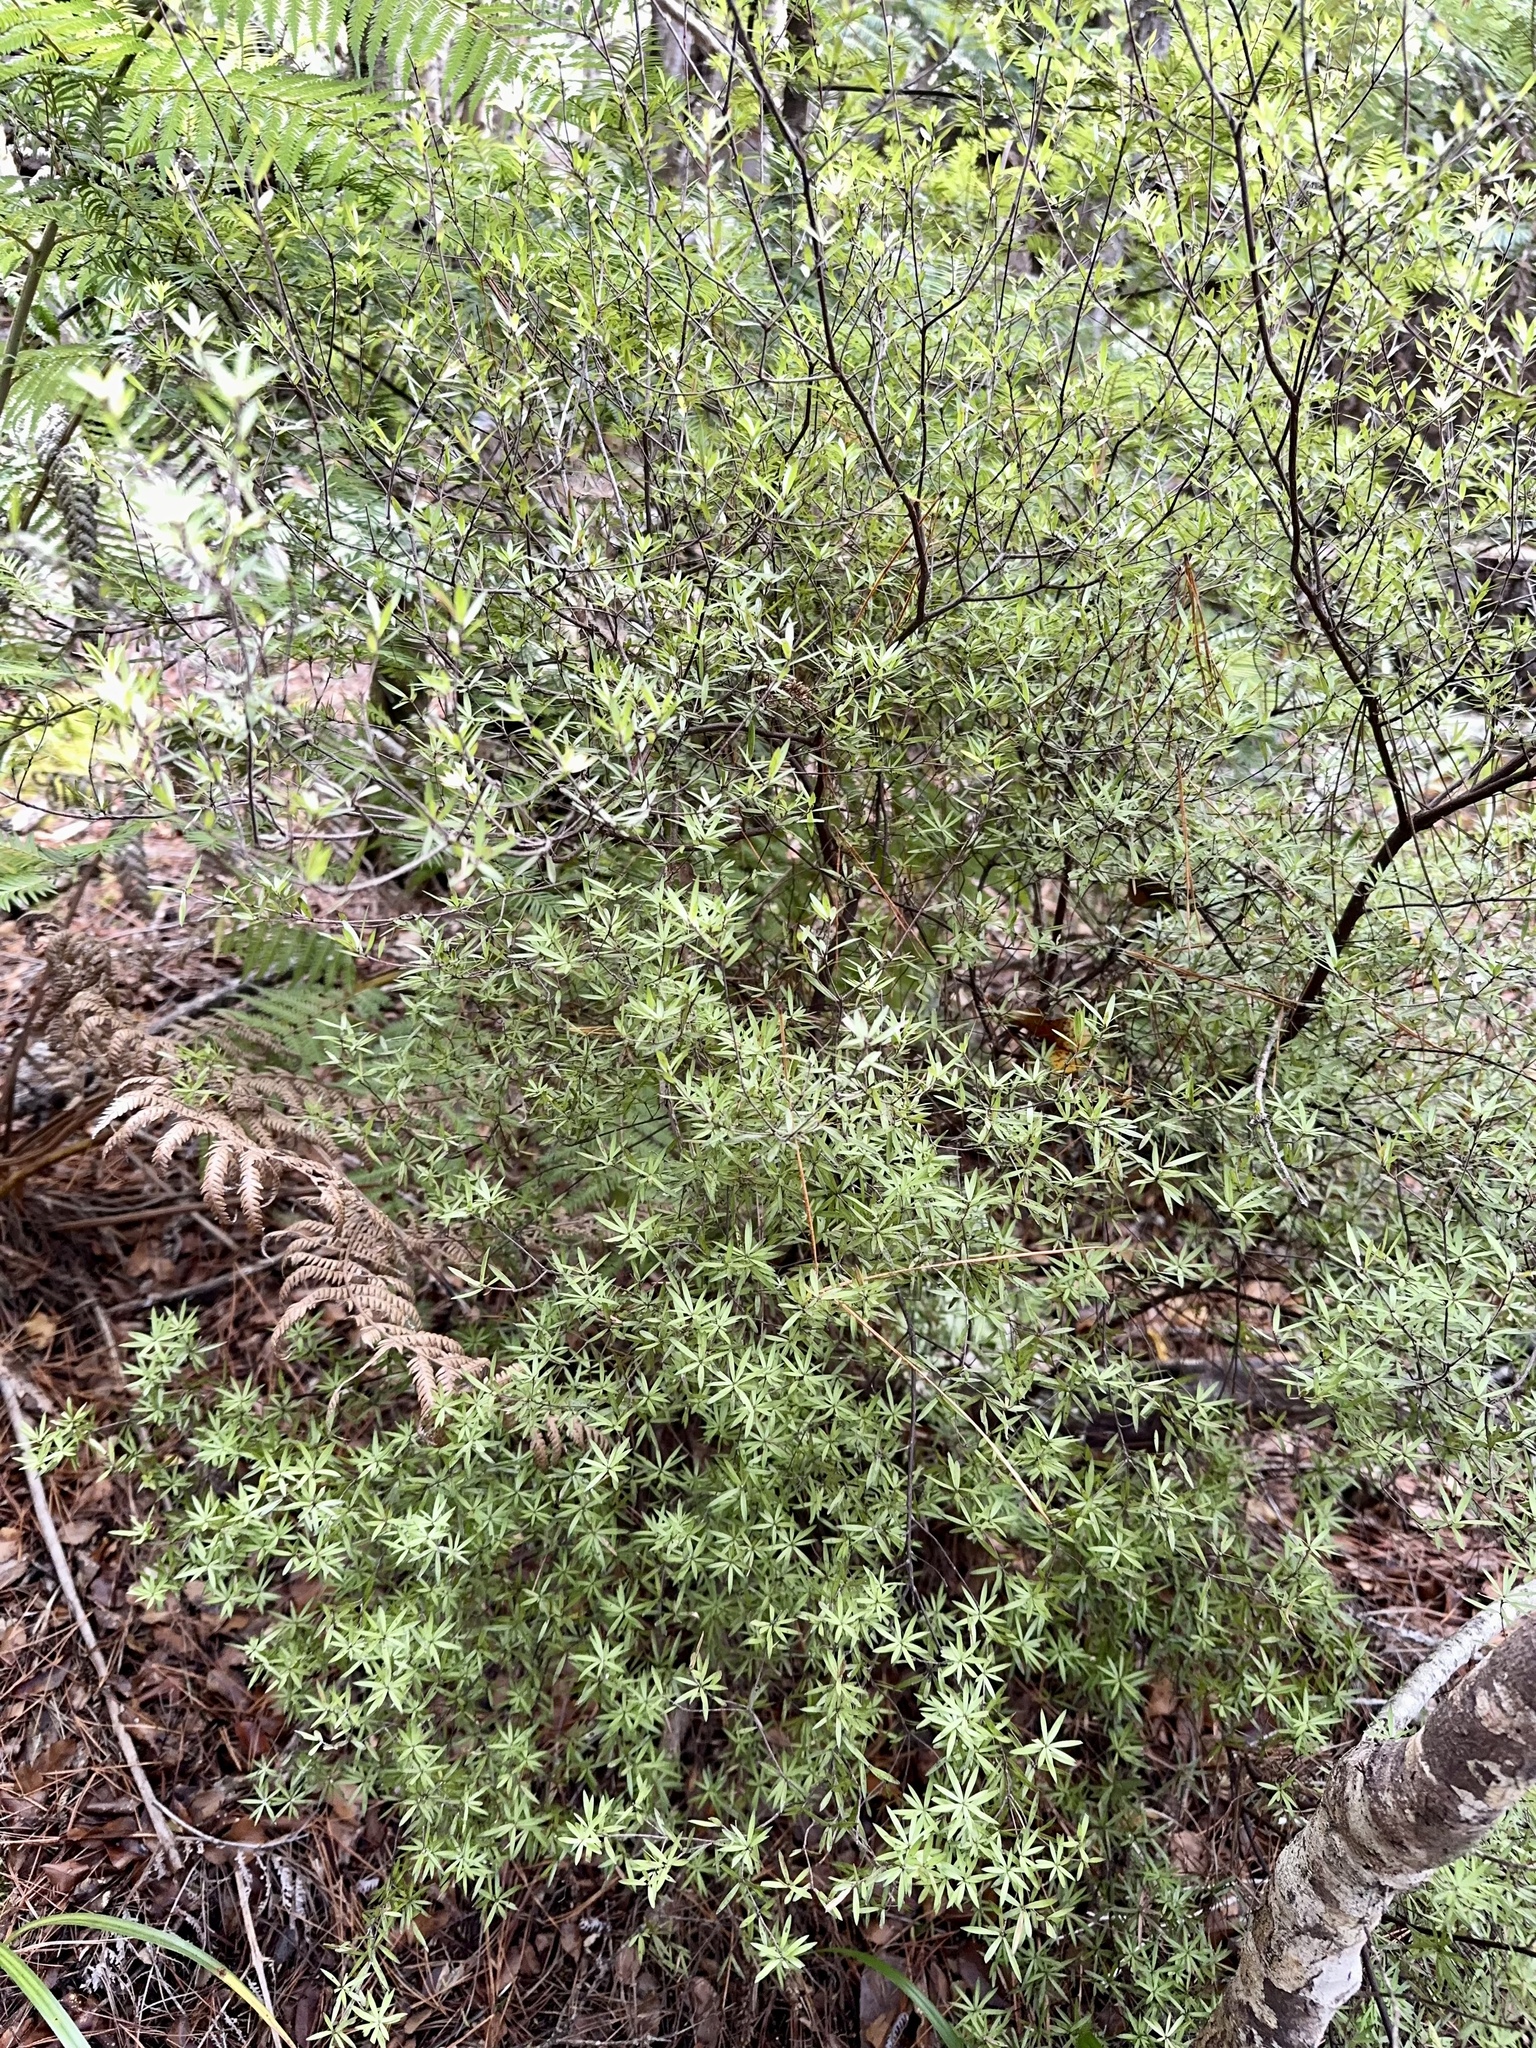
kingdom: Plantae
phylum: Tracheophyta
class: Magnoliopsida
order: Ericales
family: Ericaceae
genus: Leucopogon
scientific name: Leucopogon fasciculatus
